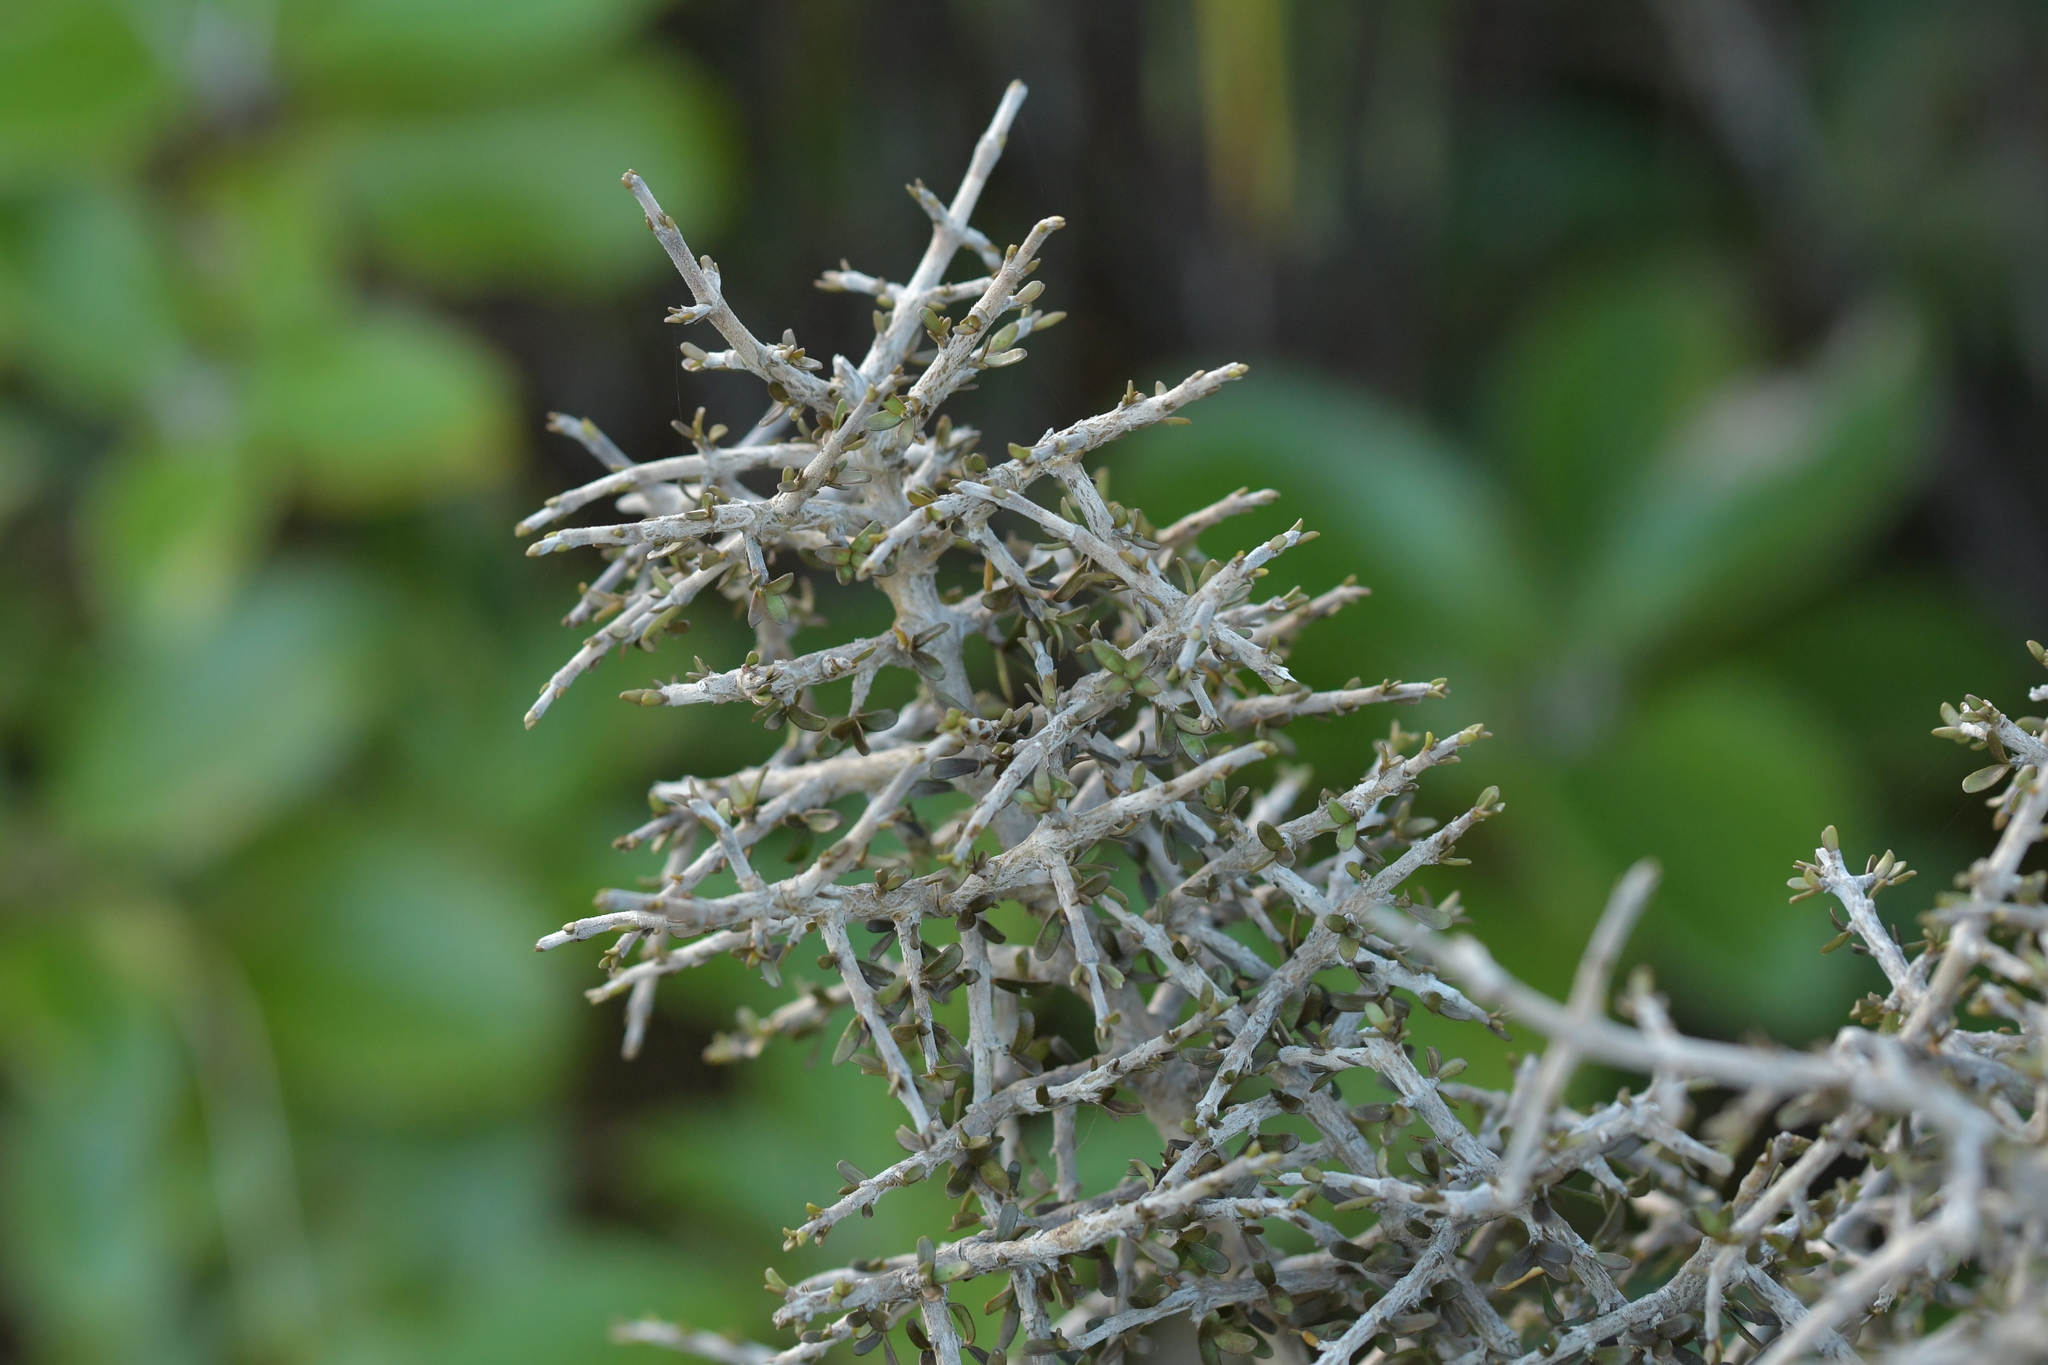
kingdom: Plantae
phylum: Tracheophyta
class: Magnoliopsida
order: Gentianales
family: Rubiaceae
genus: Coprosma
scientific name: Coprosma dumosa
